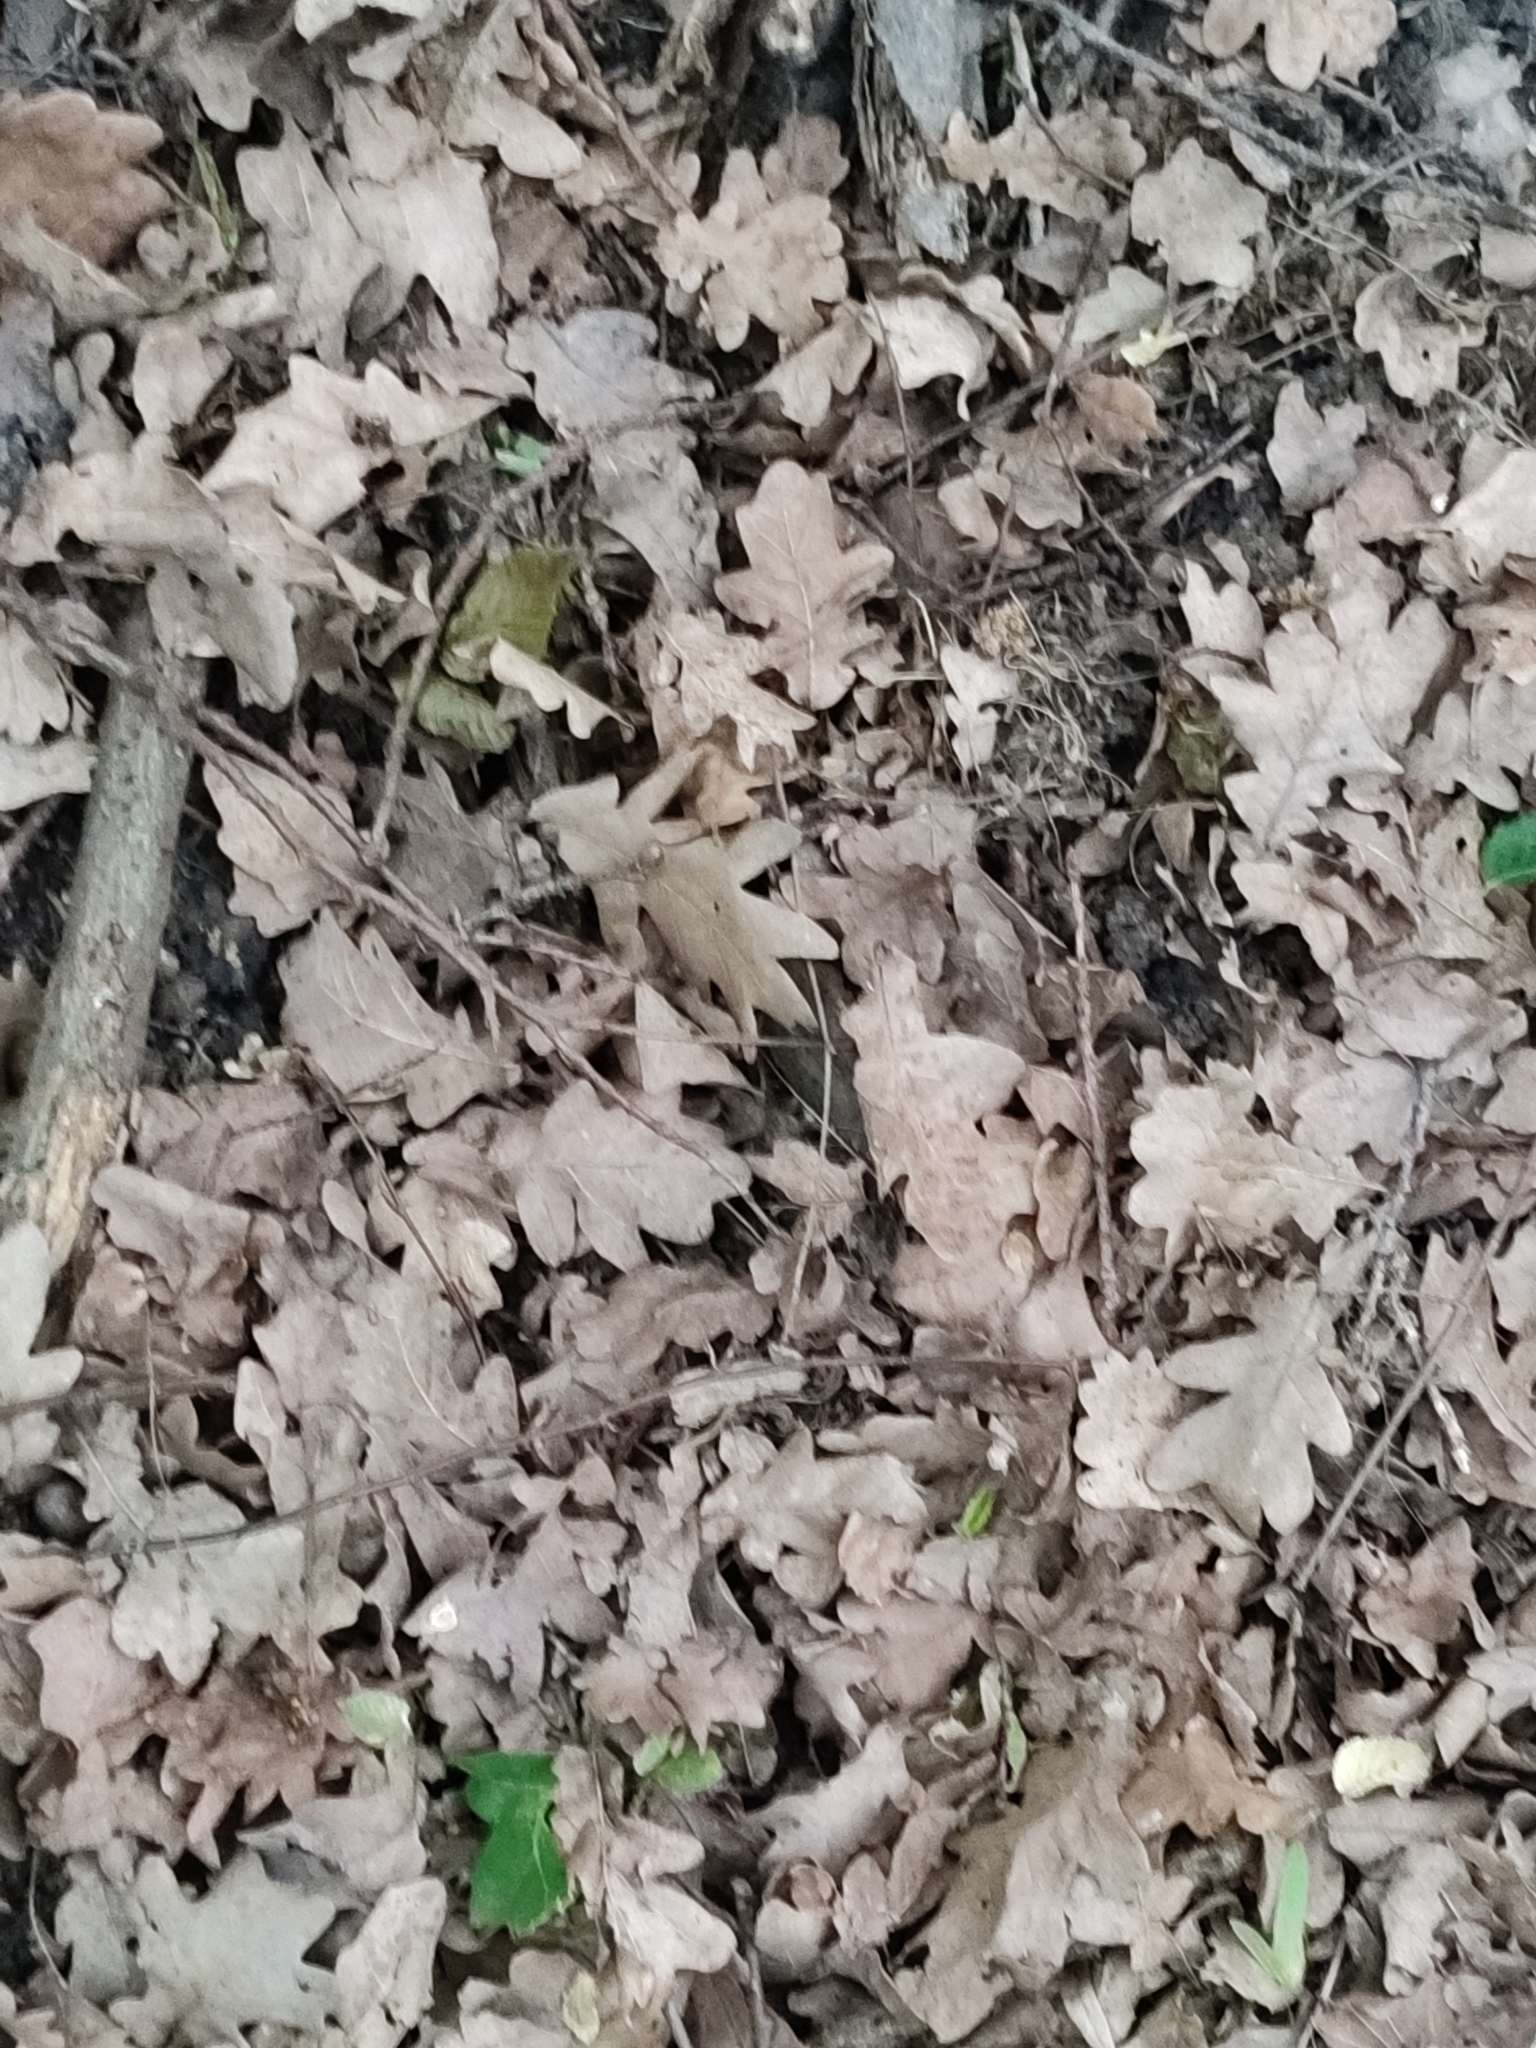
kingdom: Plantae
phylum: Tracheophyta
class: Magnoliopsida
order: Fagales
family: Fagaceae
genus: Quercus
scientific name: Quercus robur
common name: Pedunculate oak
